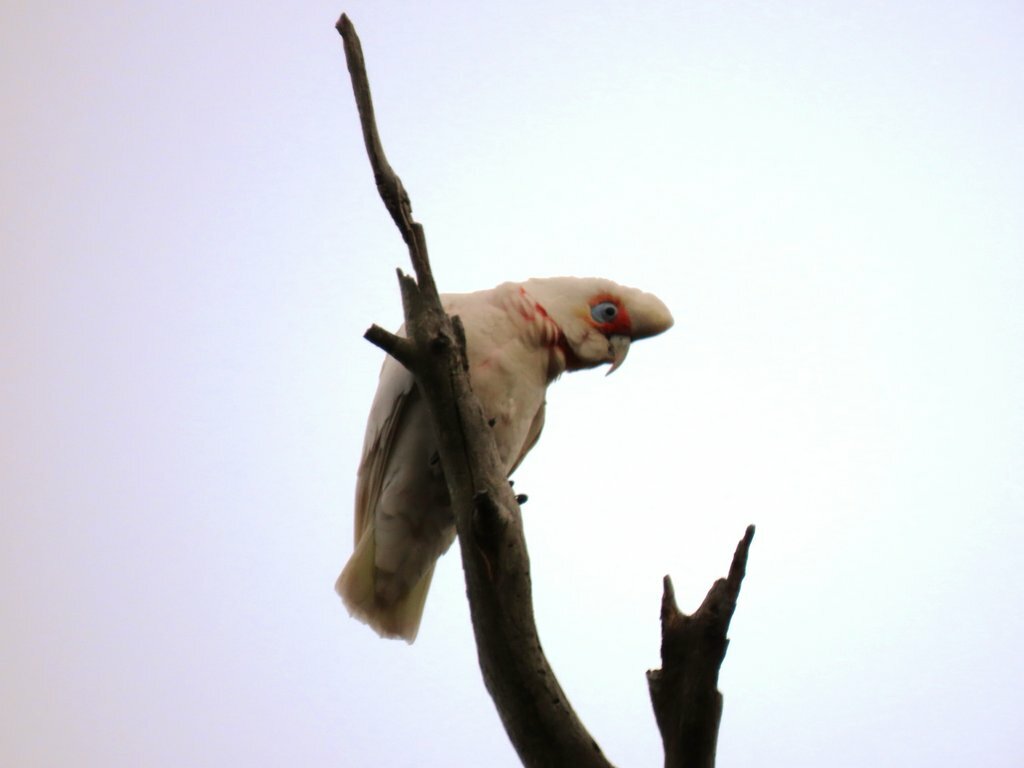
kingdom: Animalia
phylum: Chordata
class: Aves
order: Psittaciformes
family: Psittacidae
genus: Cacatua
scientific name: Cacatua tenuirostris
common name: Long-billed corella
